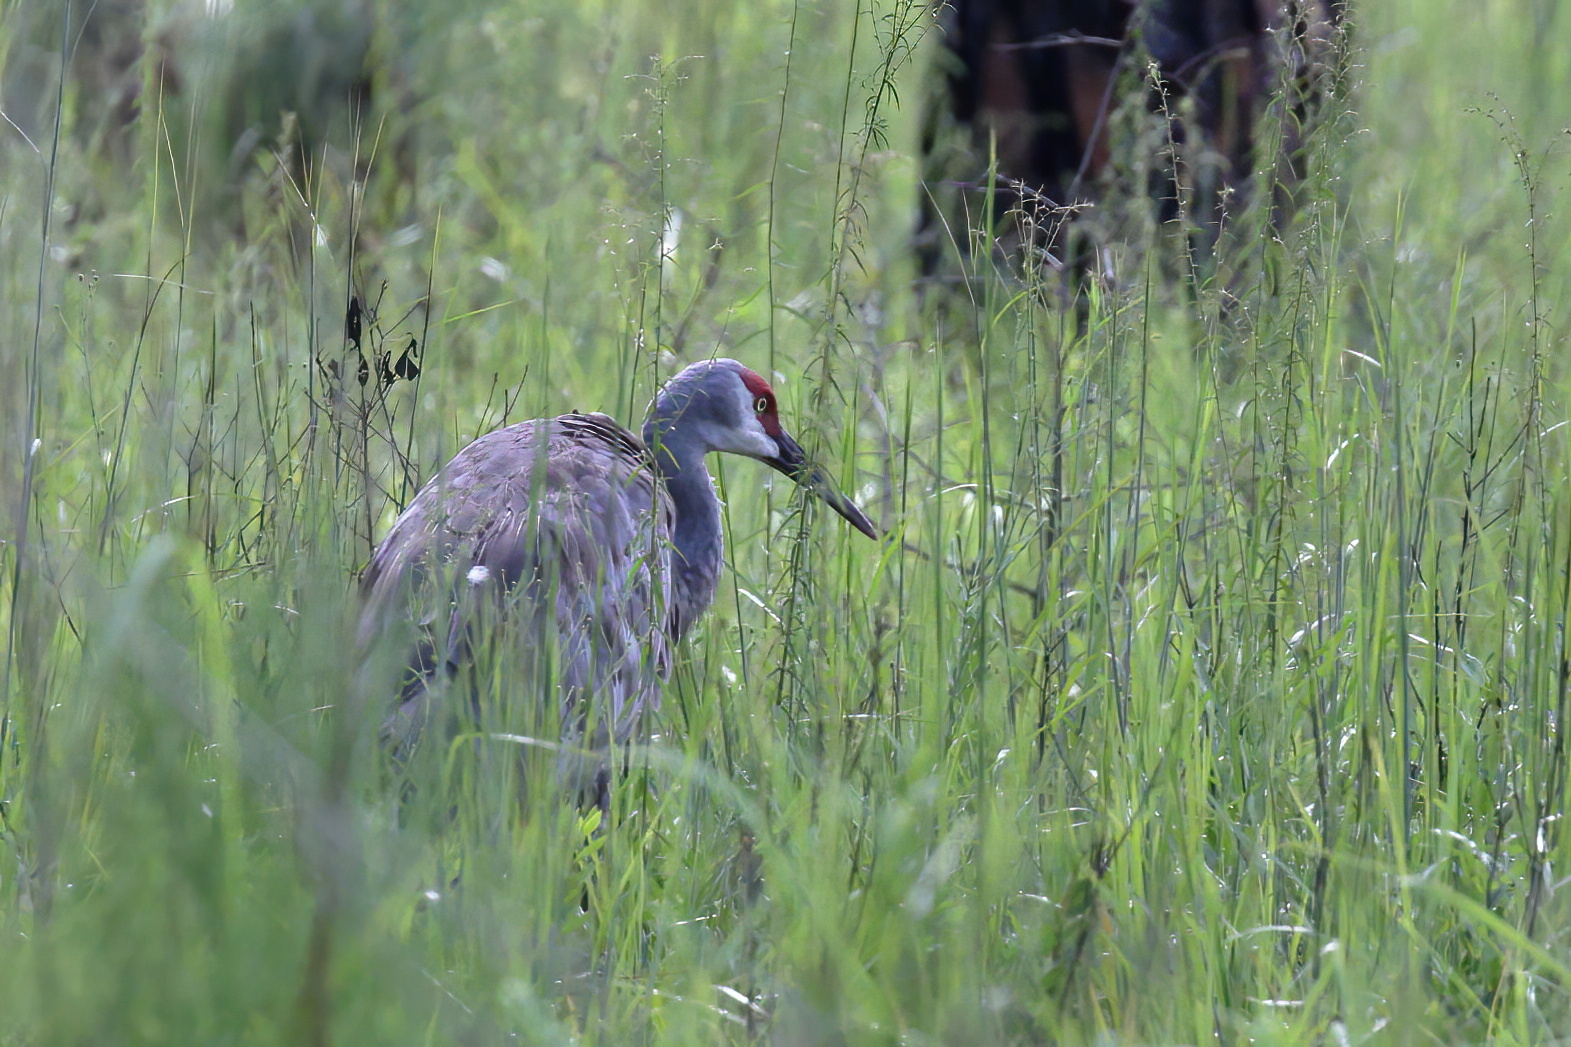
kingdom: Animalia
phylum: Chordata
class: Aves
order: Gruiformes
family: Gruidae
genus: Grus
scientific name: Grus canadensis
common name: Sandhill crane
